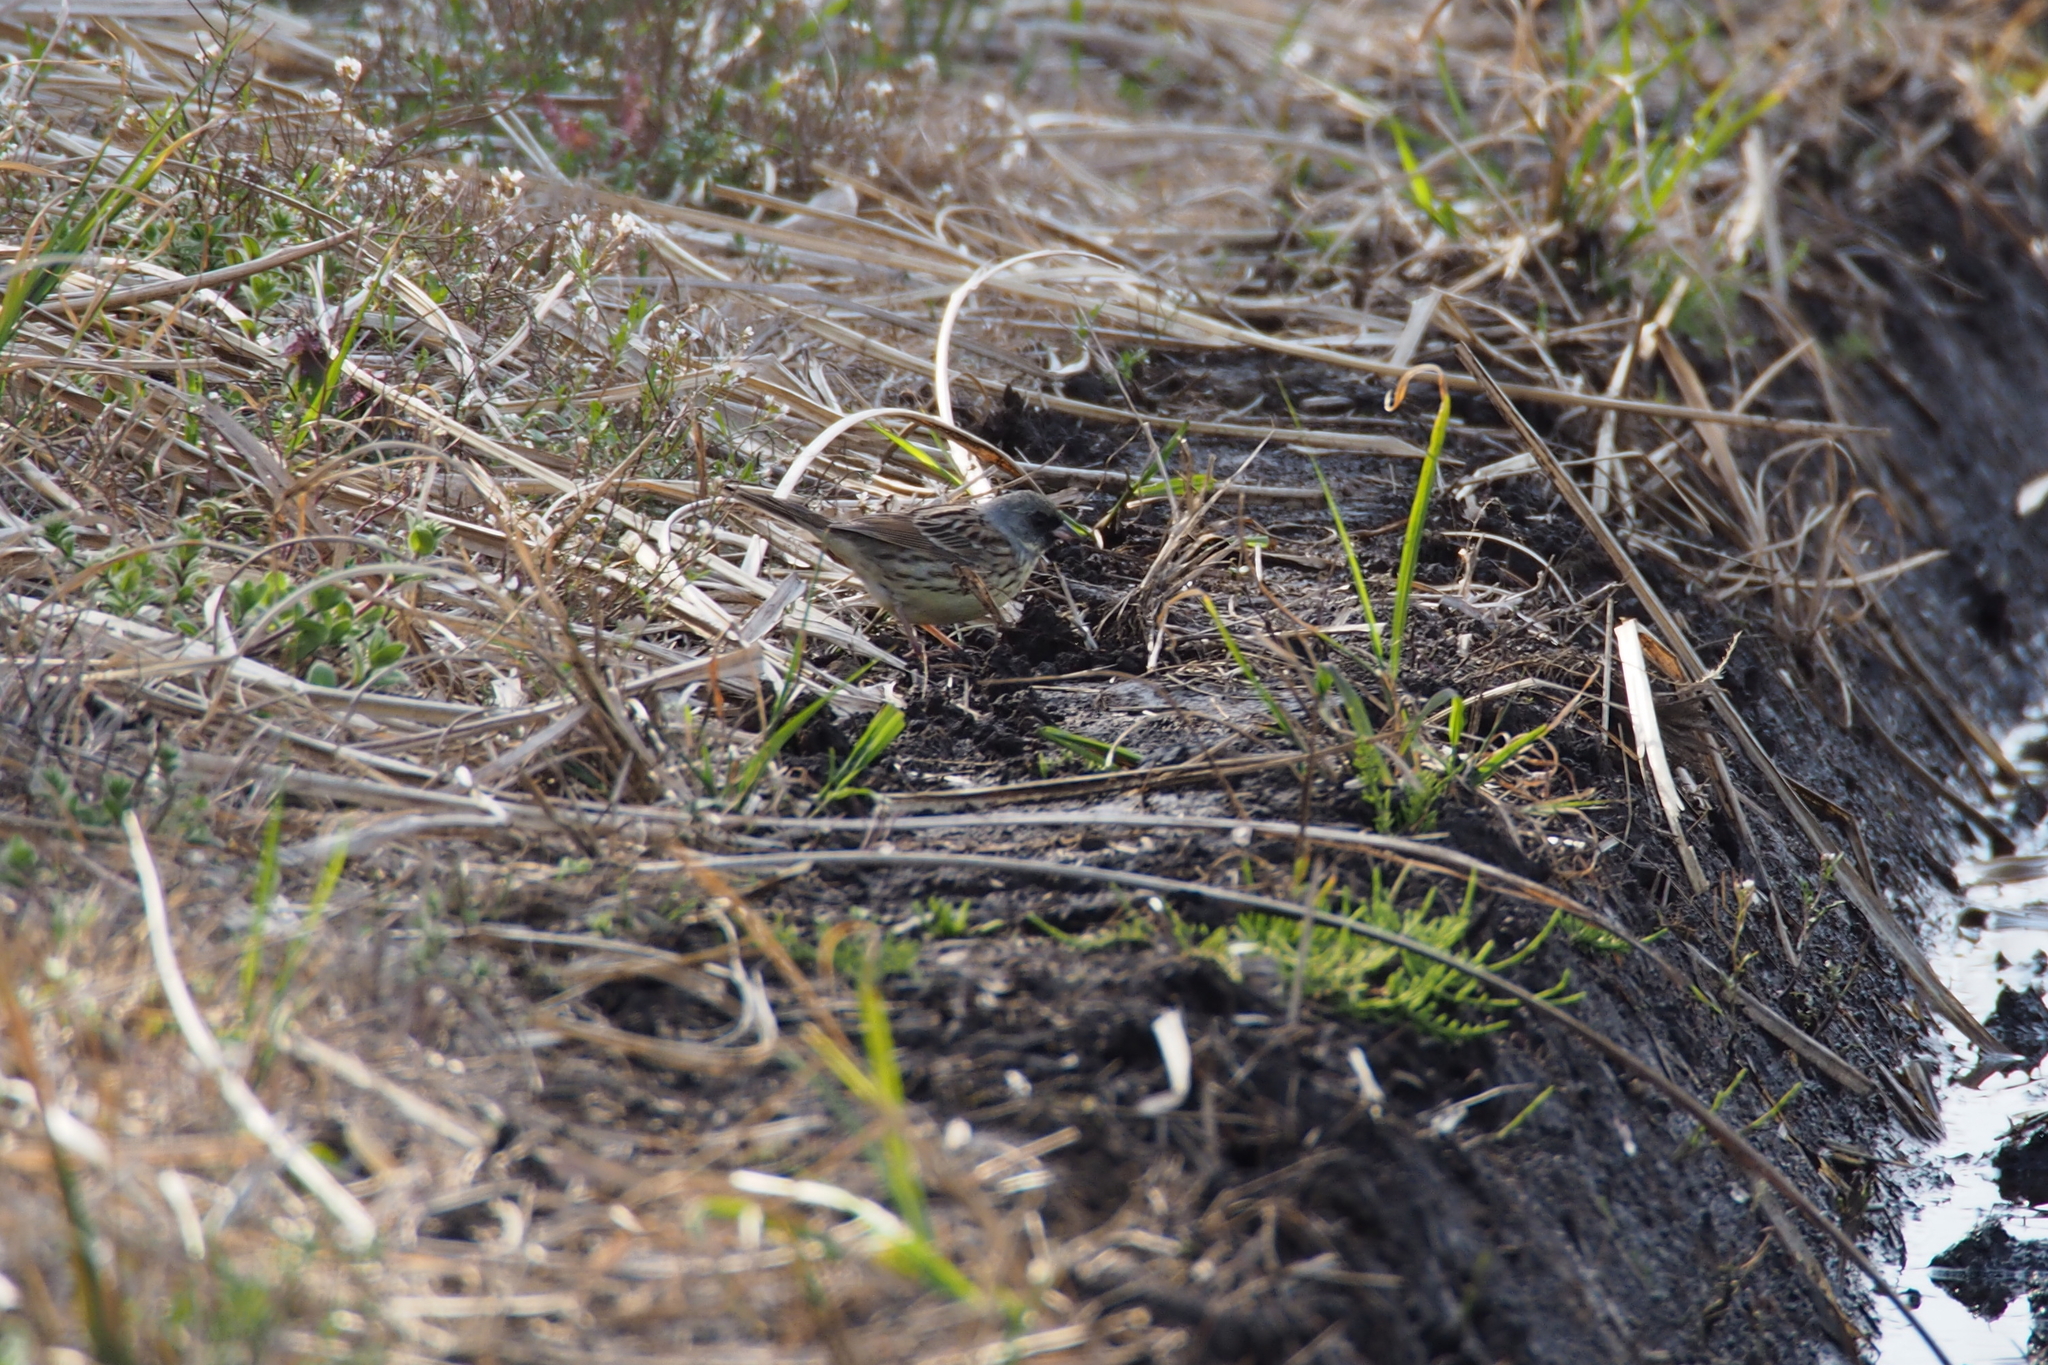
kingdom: Animalia
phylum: Chordata
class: Aves
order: Passeriformes
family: Emberizidae
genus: Emberiza
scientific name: Emberiza personata
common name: Masked bunting
